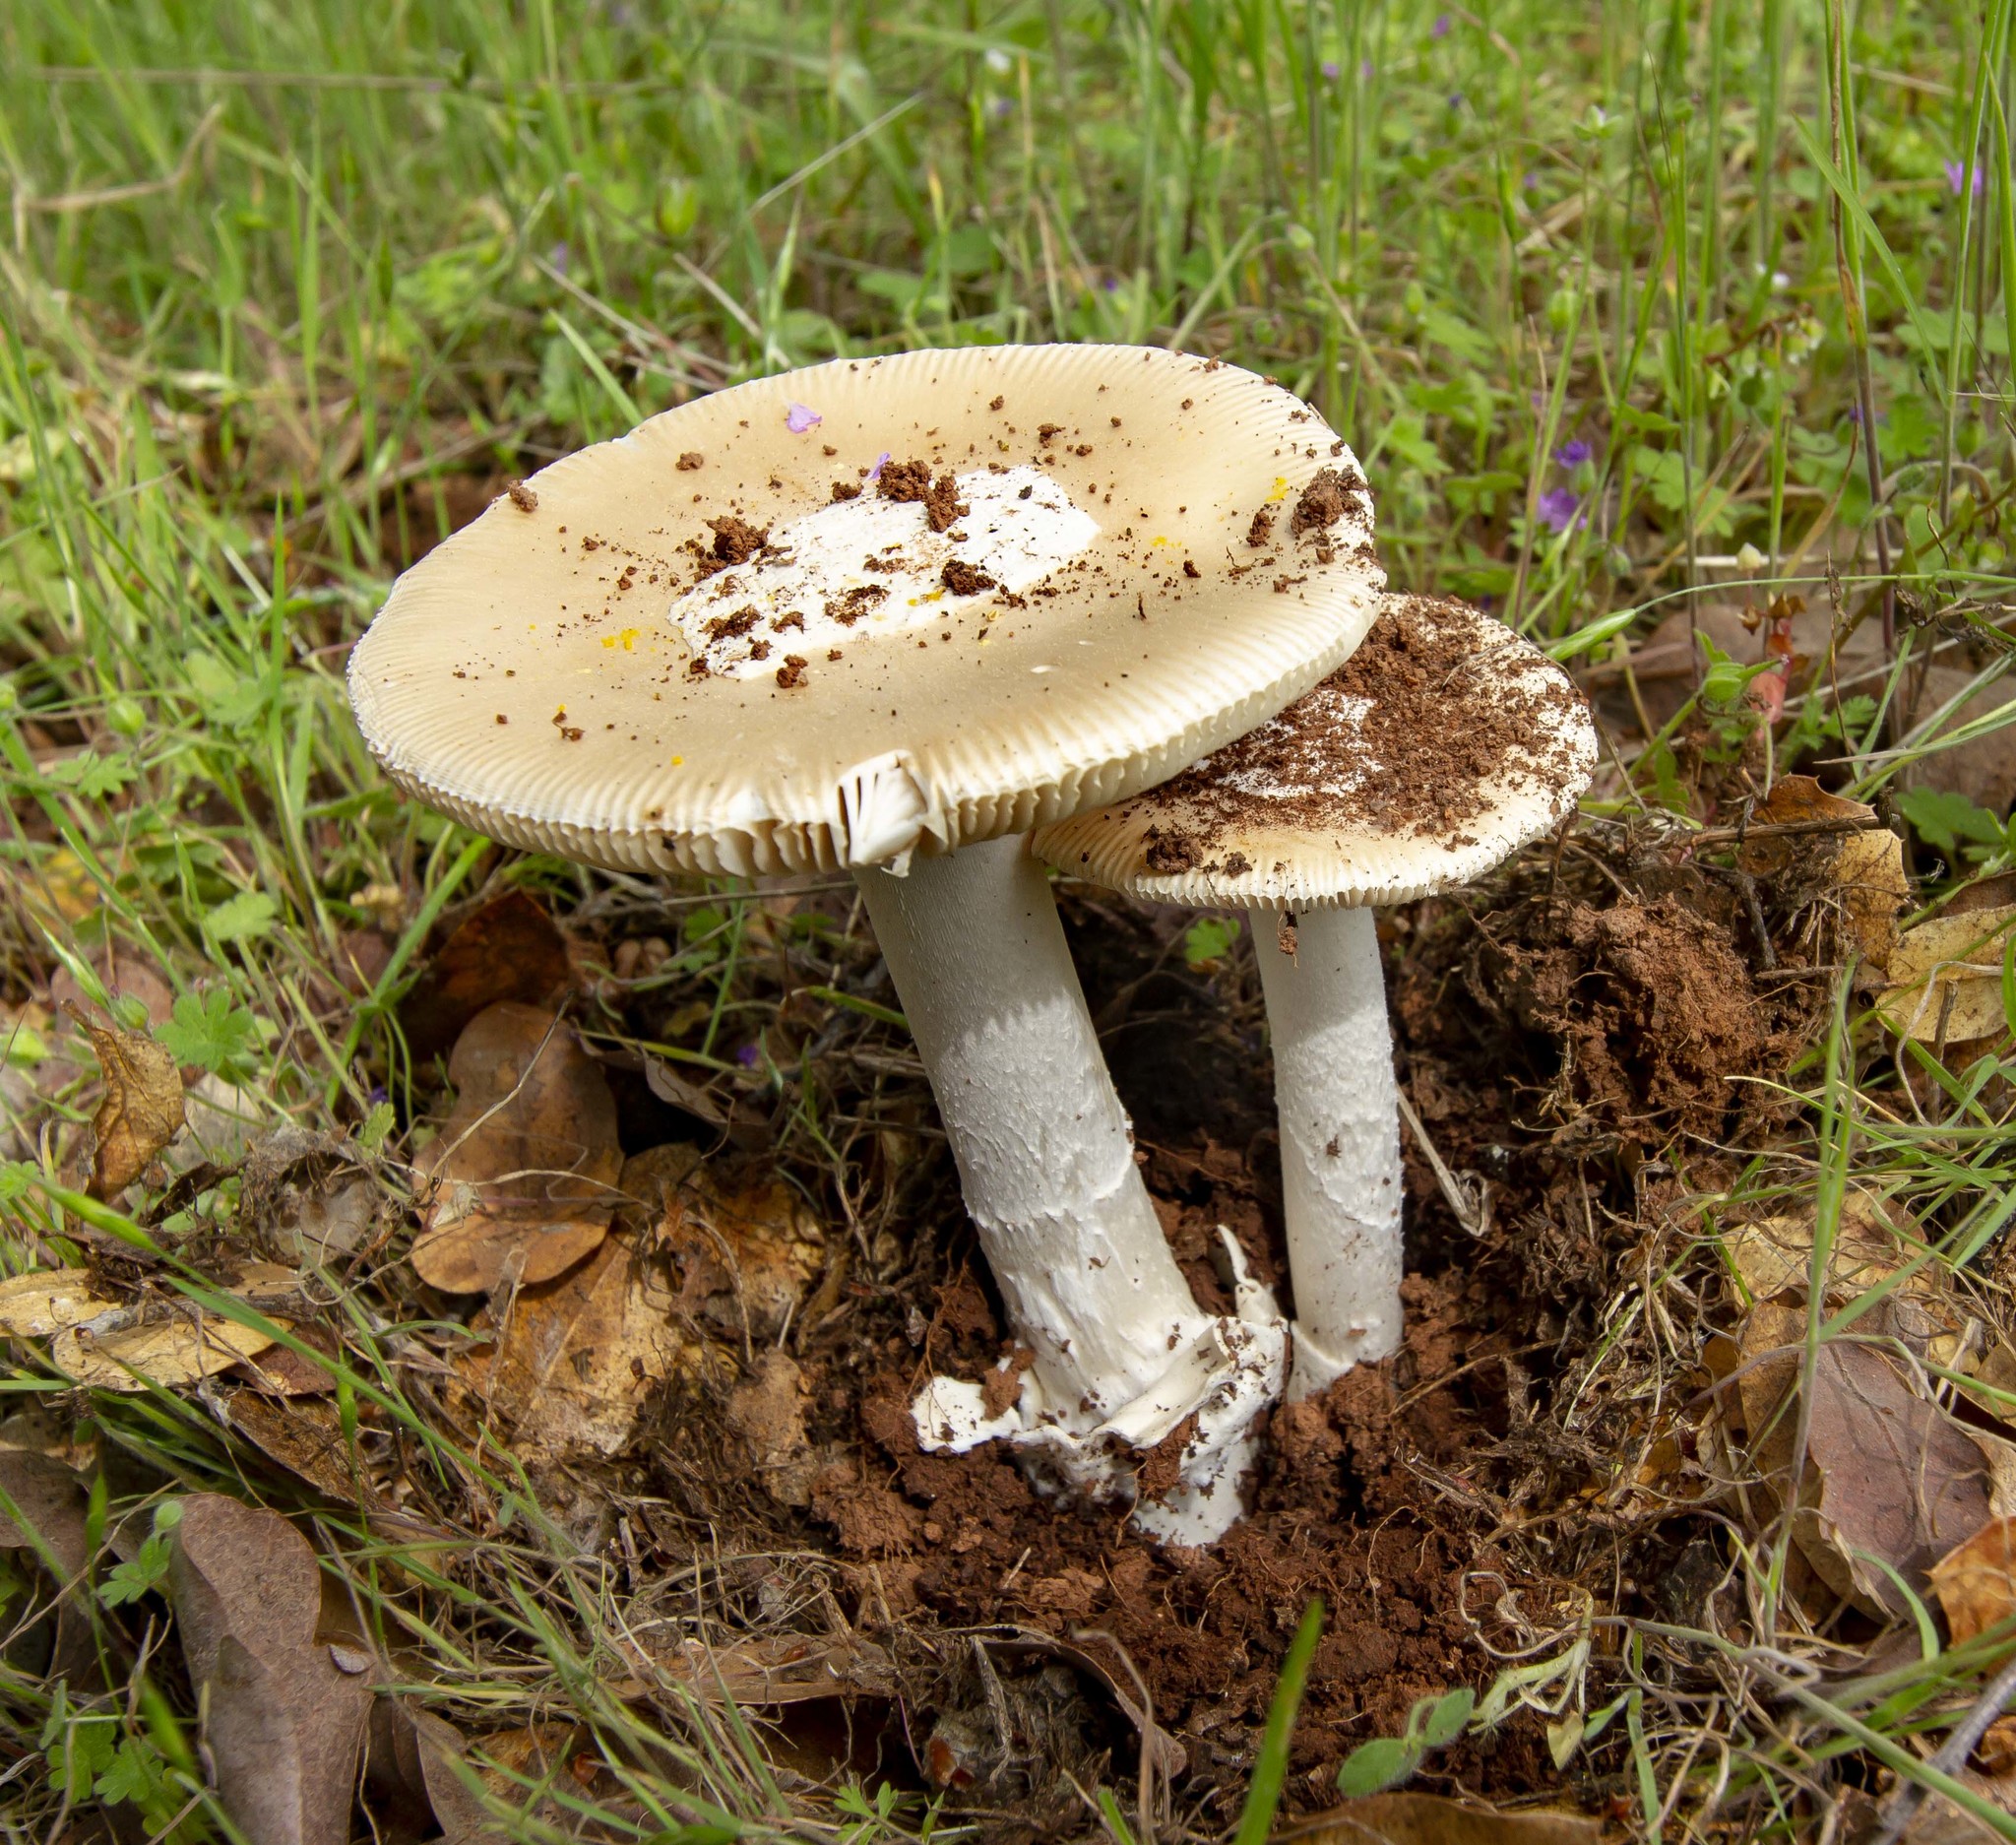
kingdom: Fungi
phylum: Basidiomycota
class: Agaricomycetes
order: Agaricales
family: Amanitaceae
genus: Amanita
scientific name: Amanita velosa
